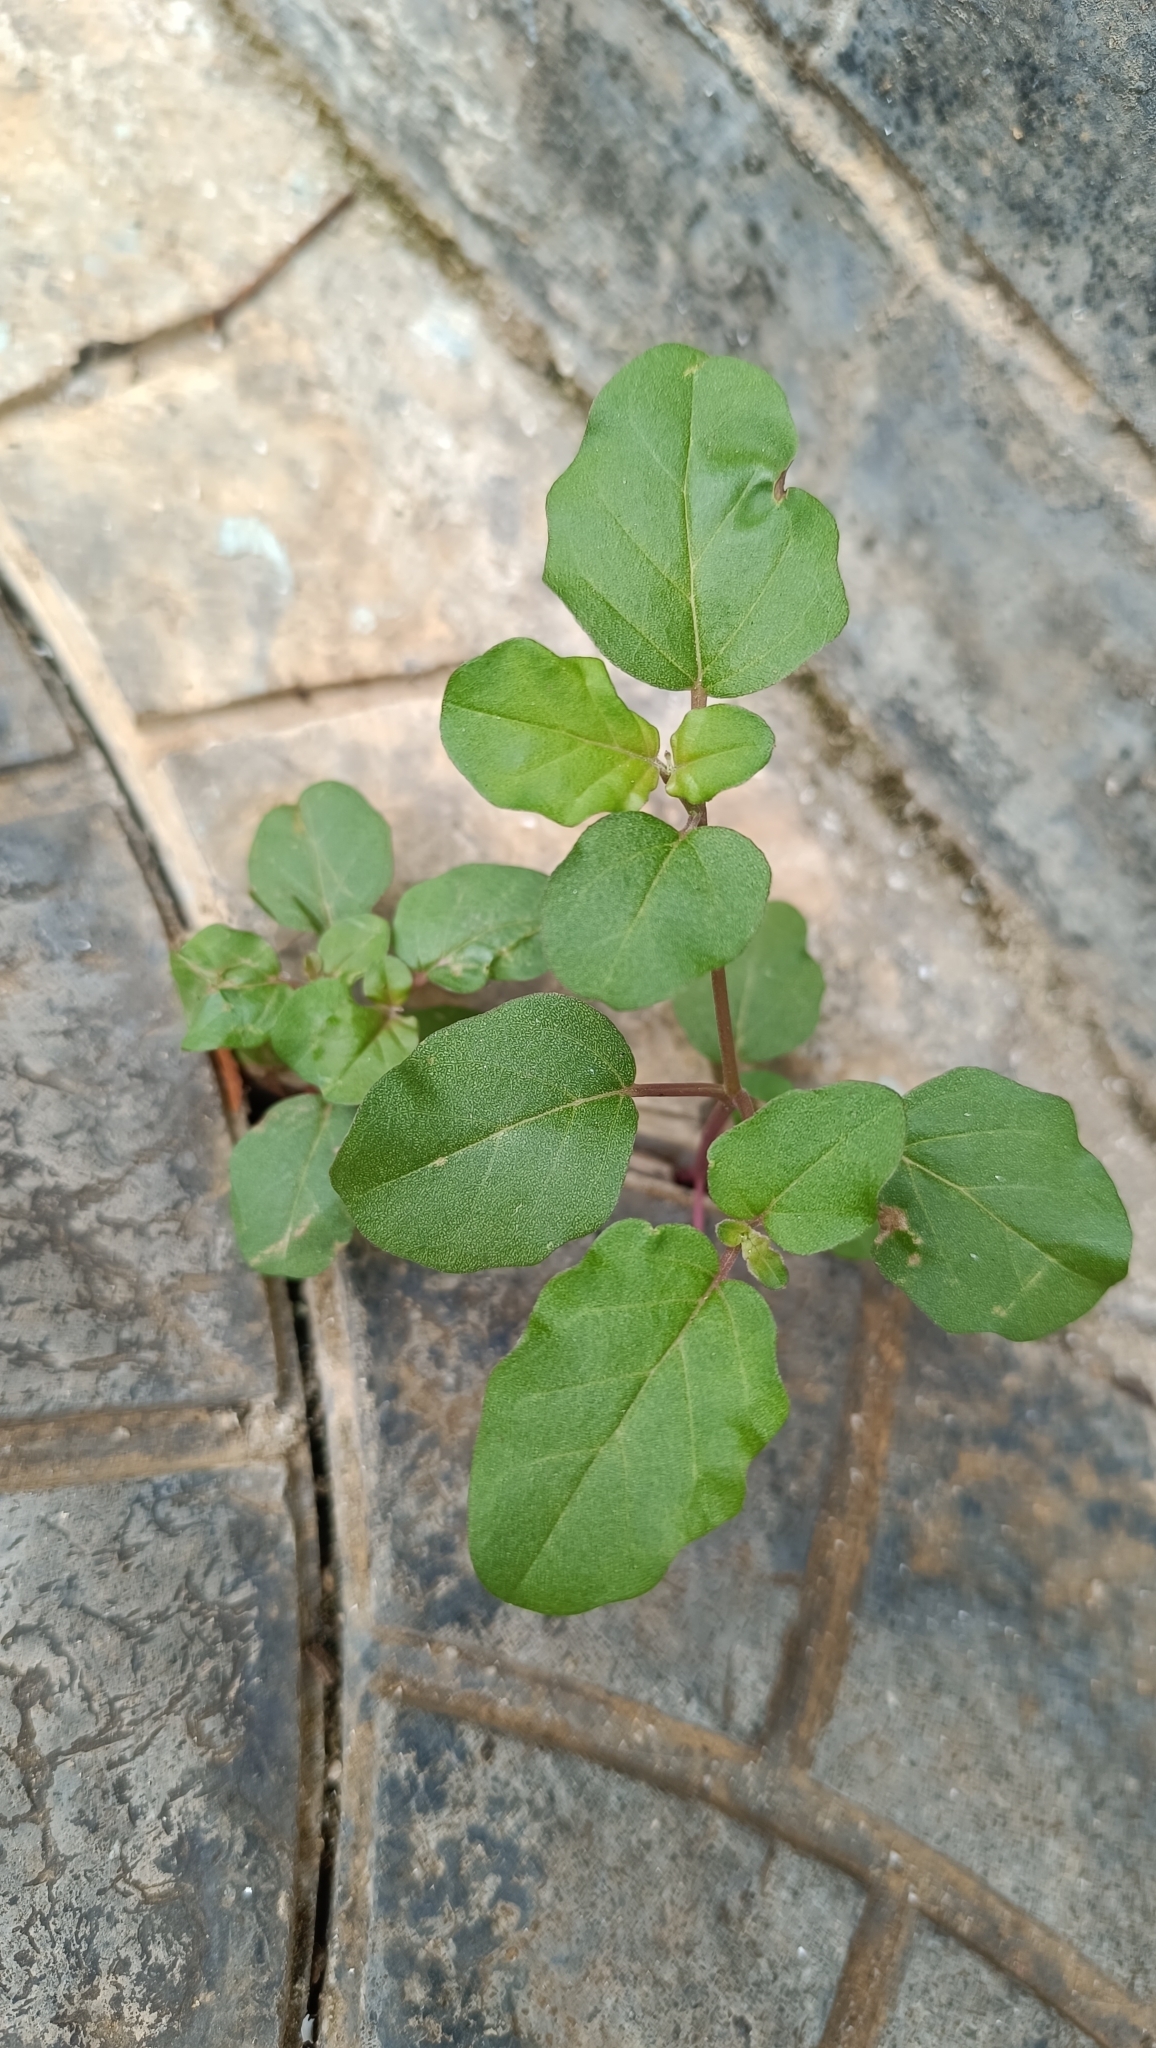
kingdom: Plantae
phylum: Tracheophyta
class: Magnoliopsida
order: Caryophyllales
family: Nyctaginaceae
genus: Boerhavia
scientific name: Boerhavia diffusa
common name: Red spiderling
